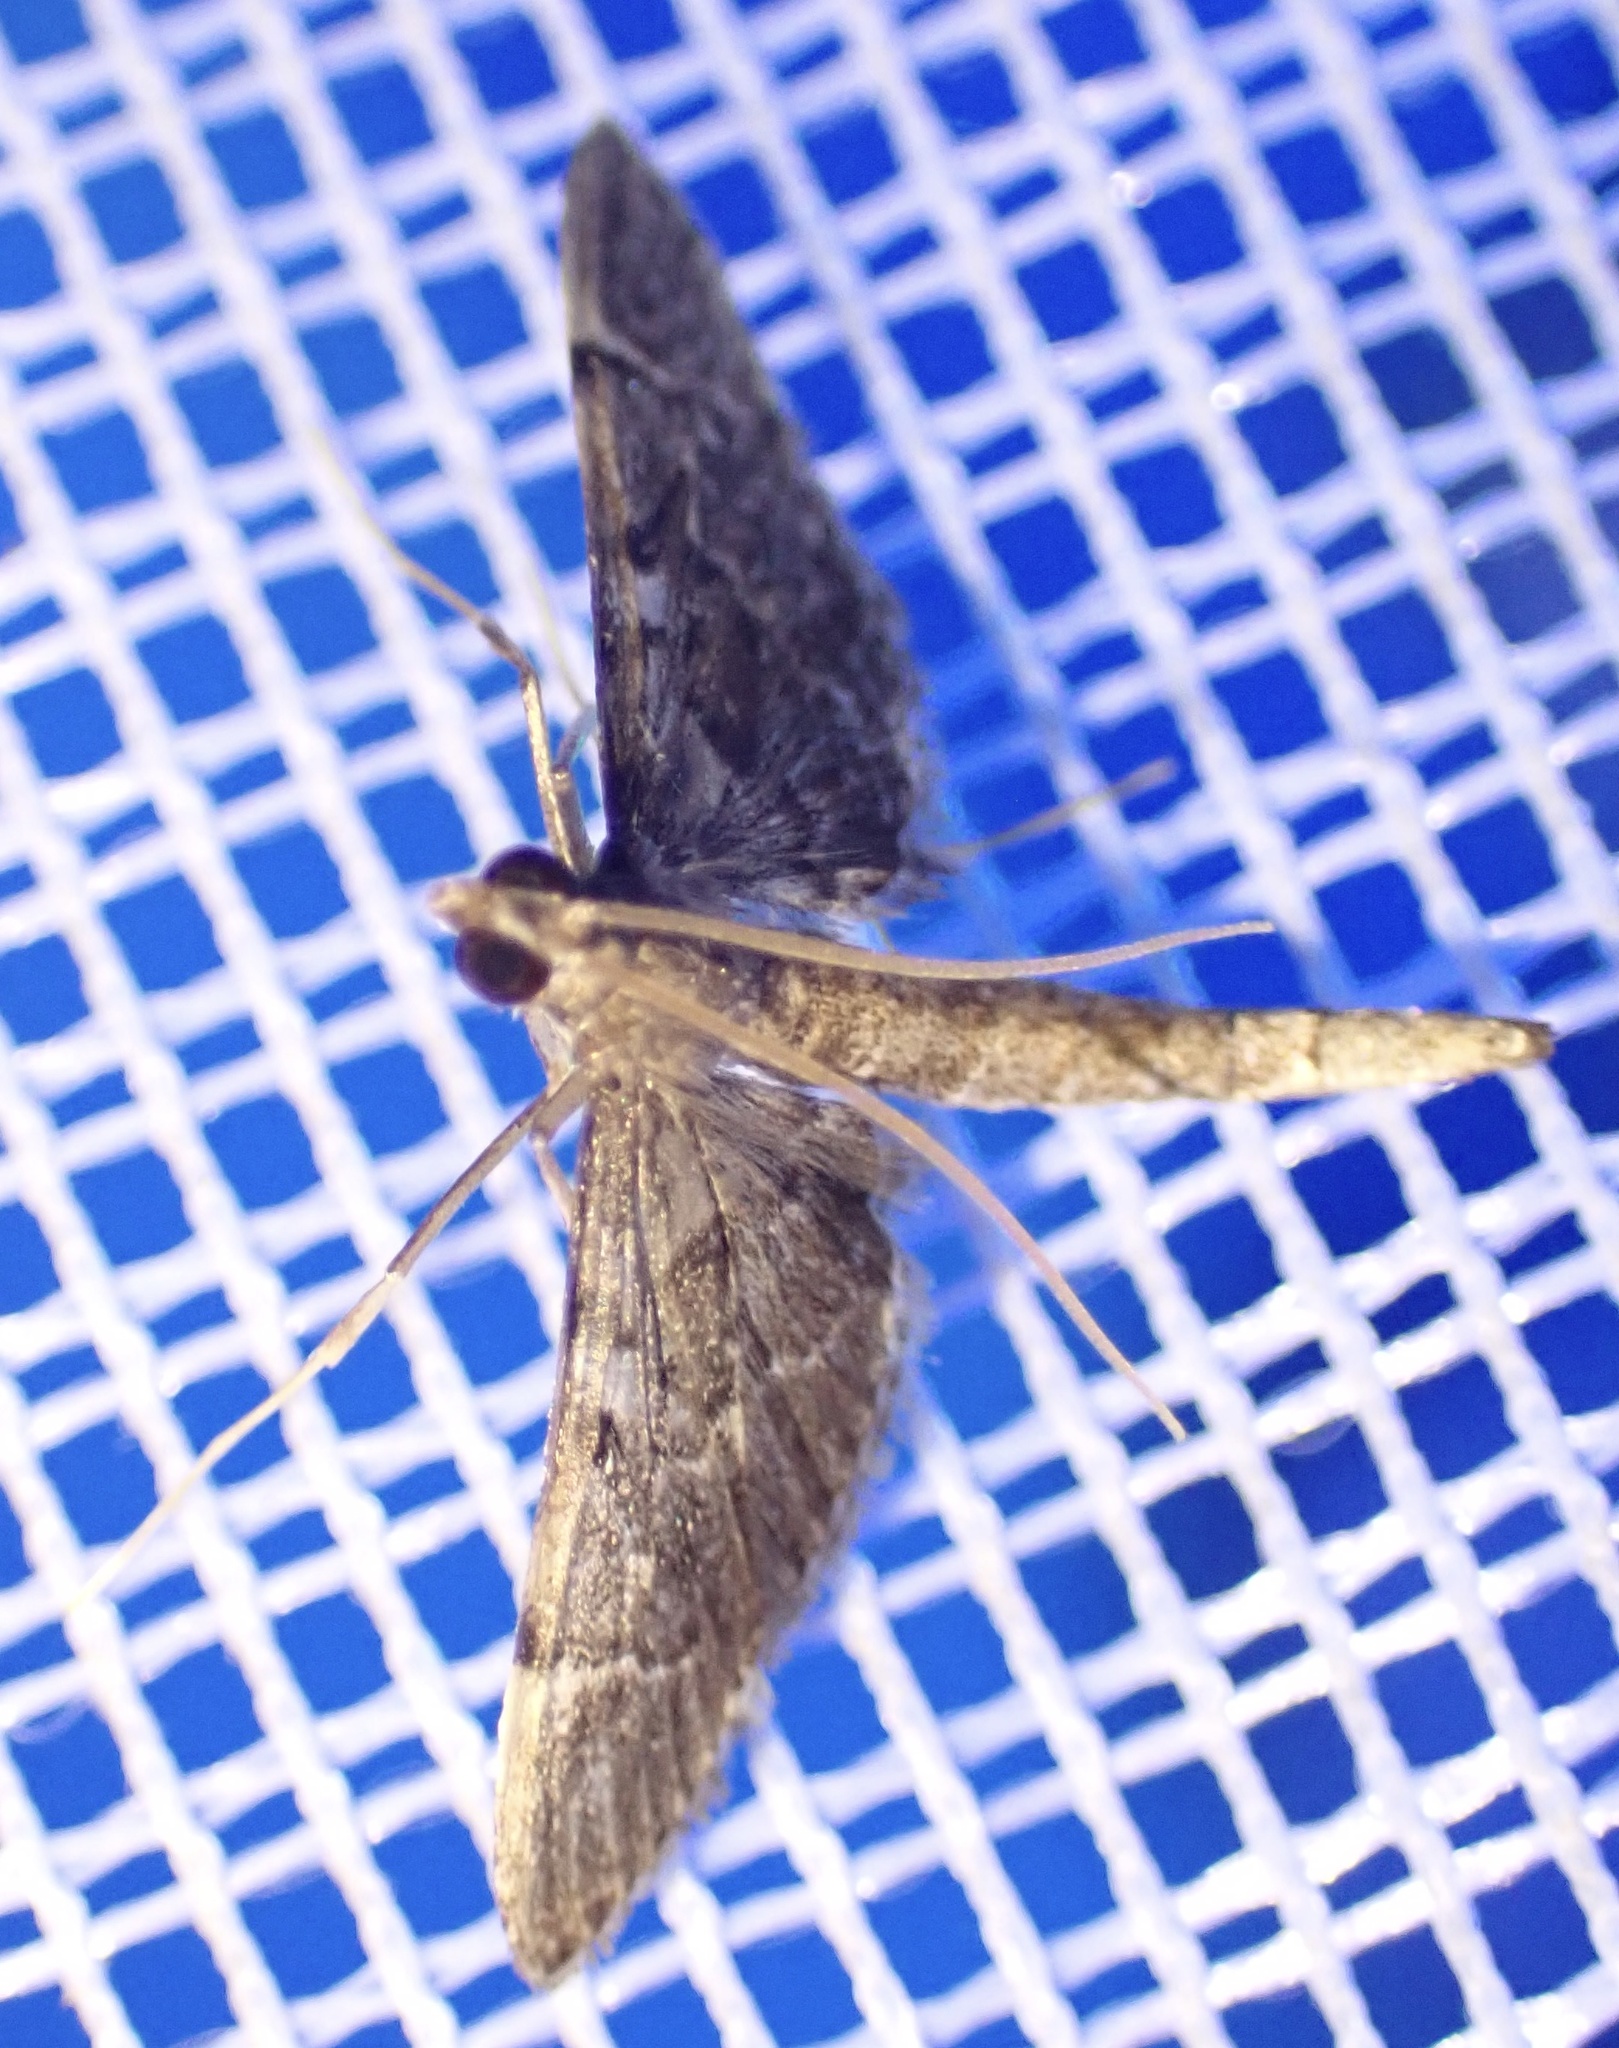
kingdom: Animalia
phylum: Arthropoda
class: Insecta
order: Lepidoptera
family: Crambidae
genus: Duponchelia
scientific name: Duponchelia lanceolalis
